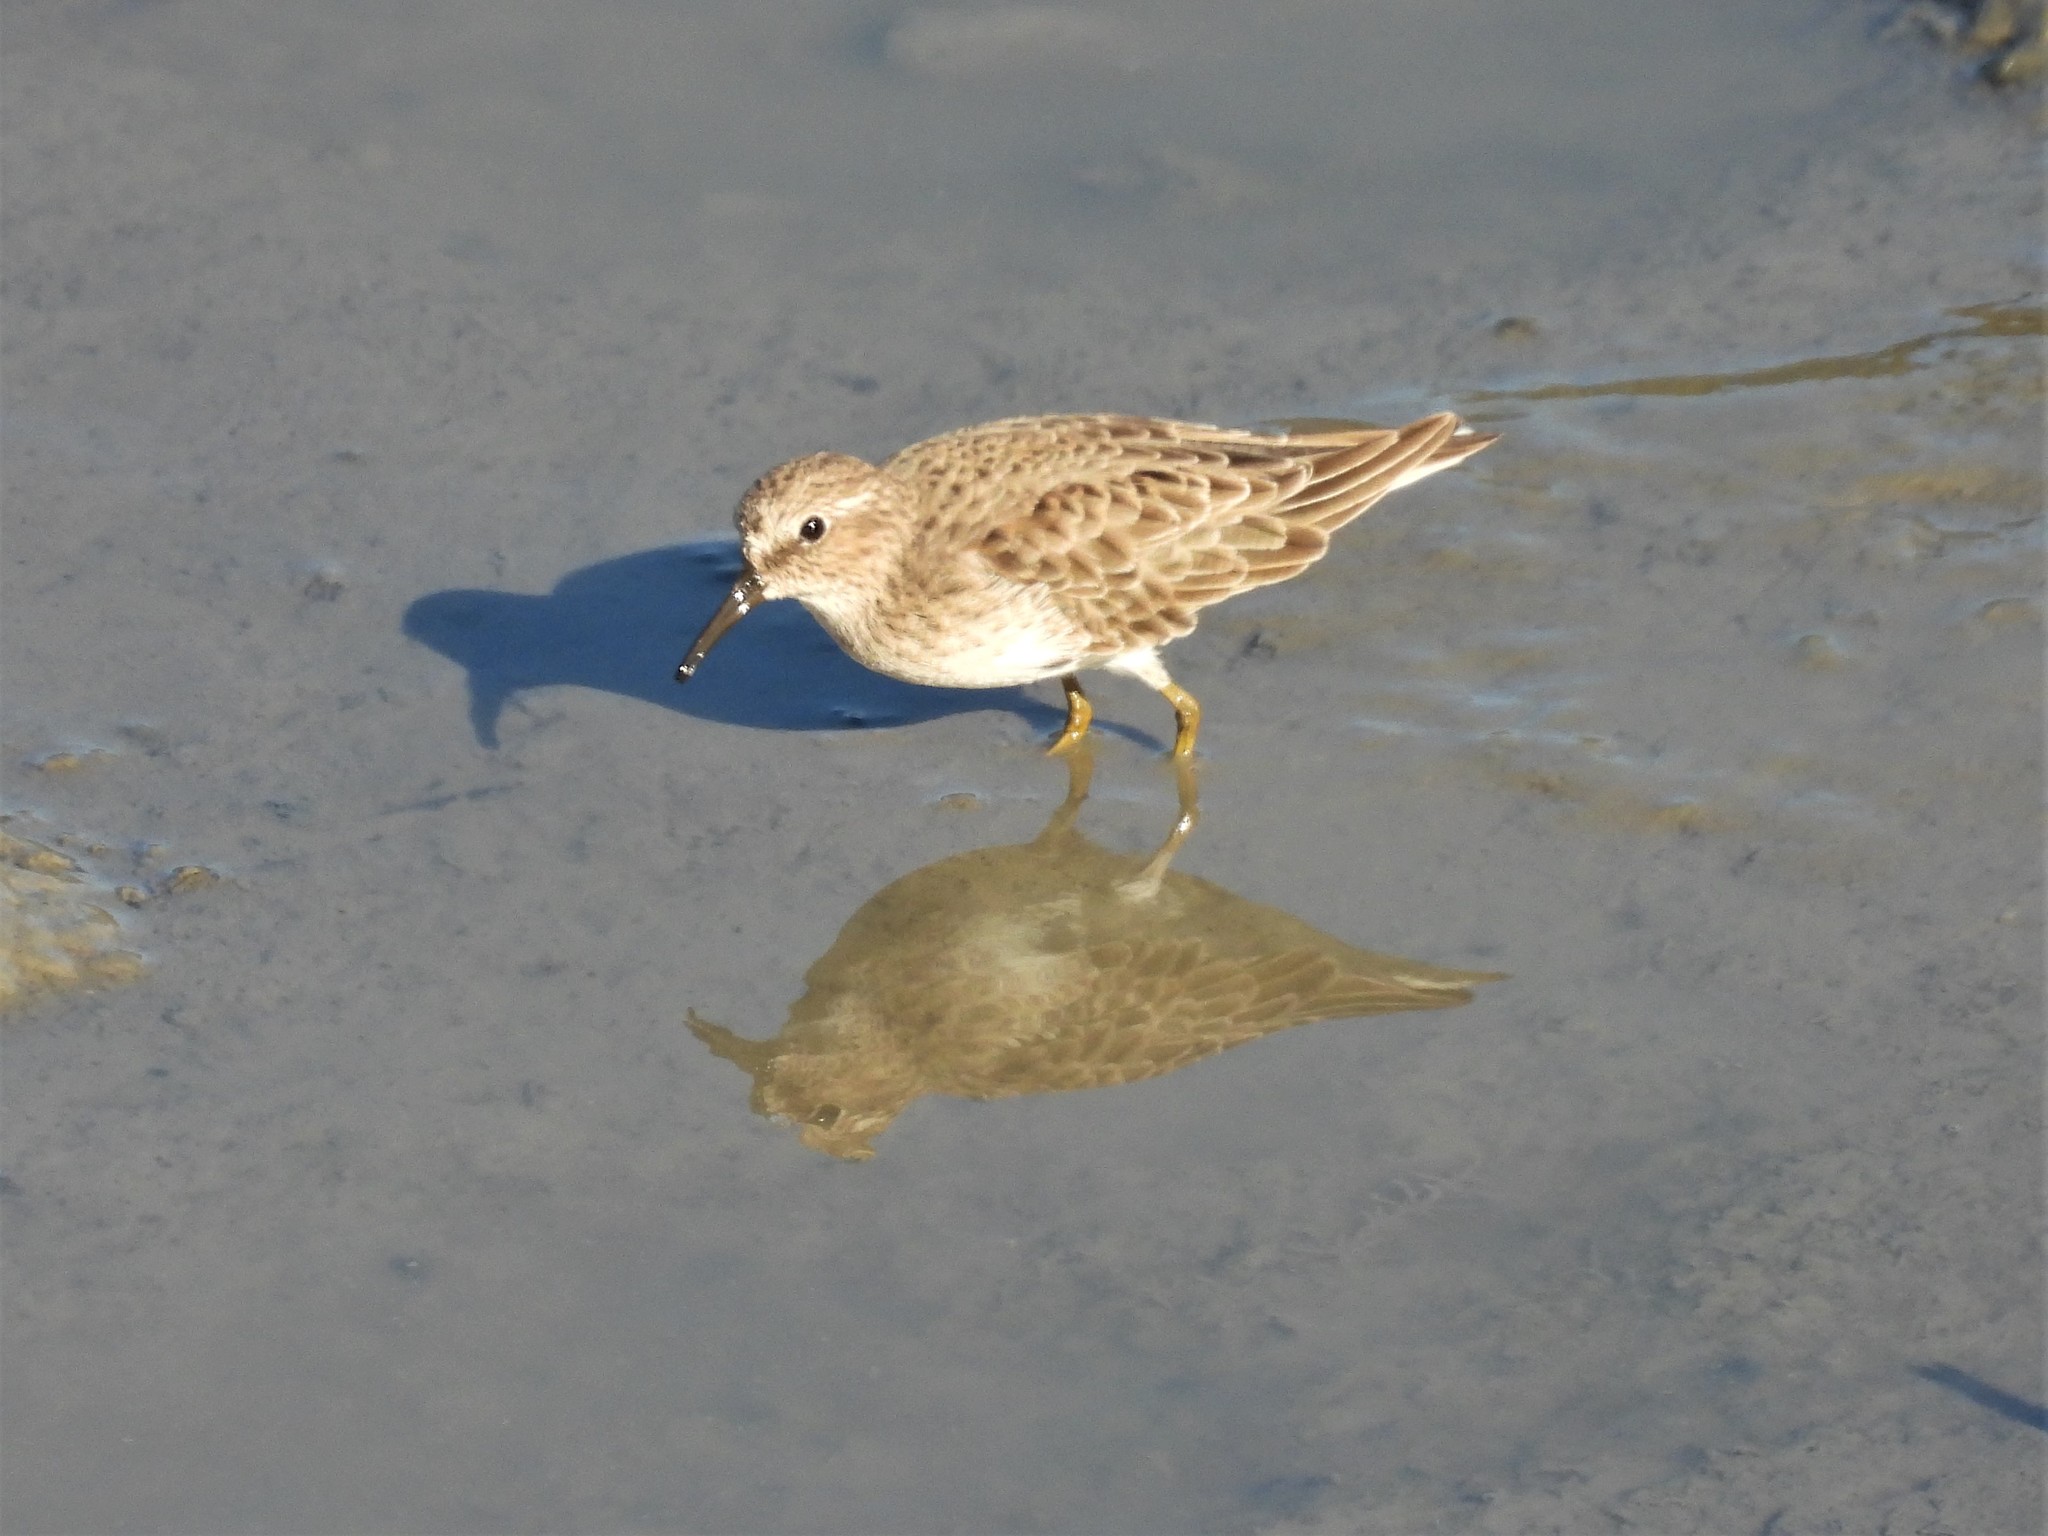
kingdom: Animalia
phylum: Chordata
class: Aves
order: Charadriiformes
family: Scolopacidae
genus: Calidris
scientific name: Calidris minutilla
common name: Least sandpiper
